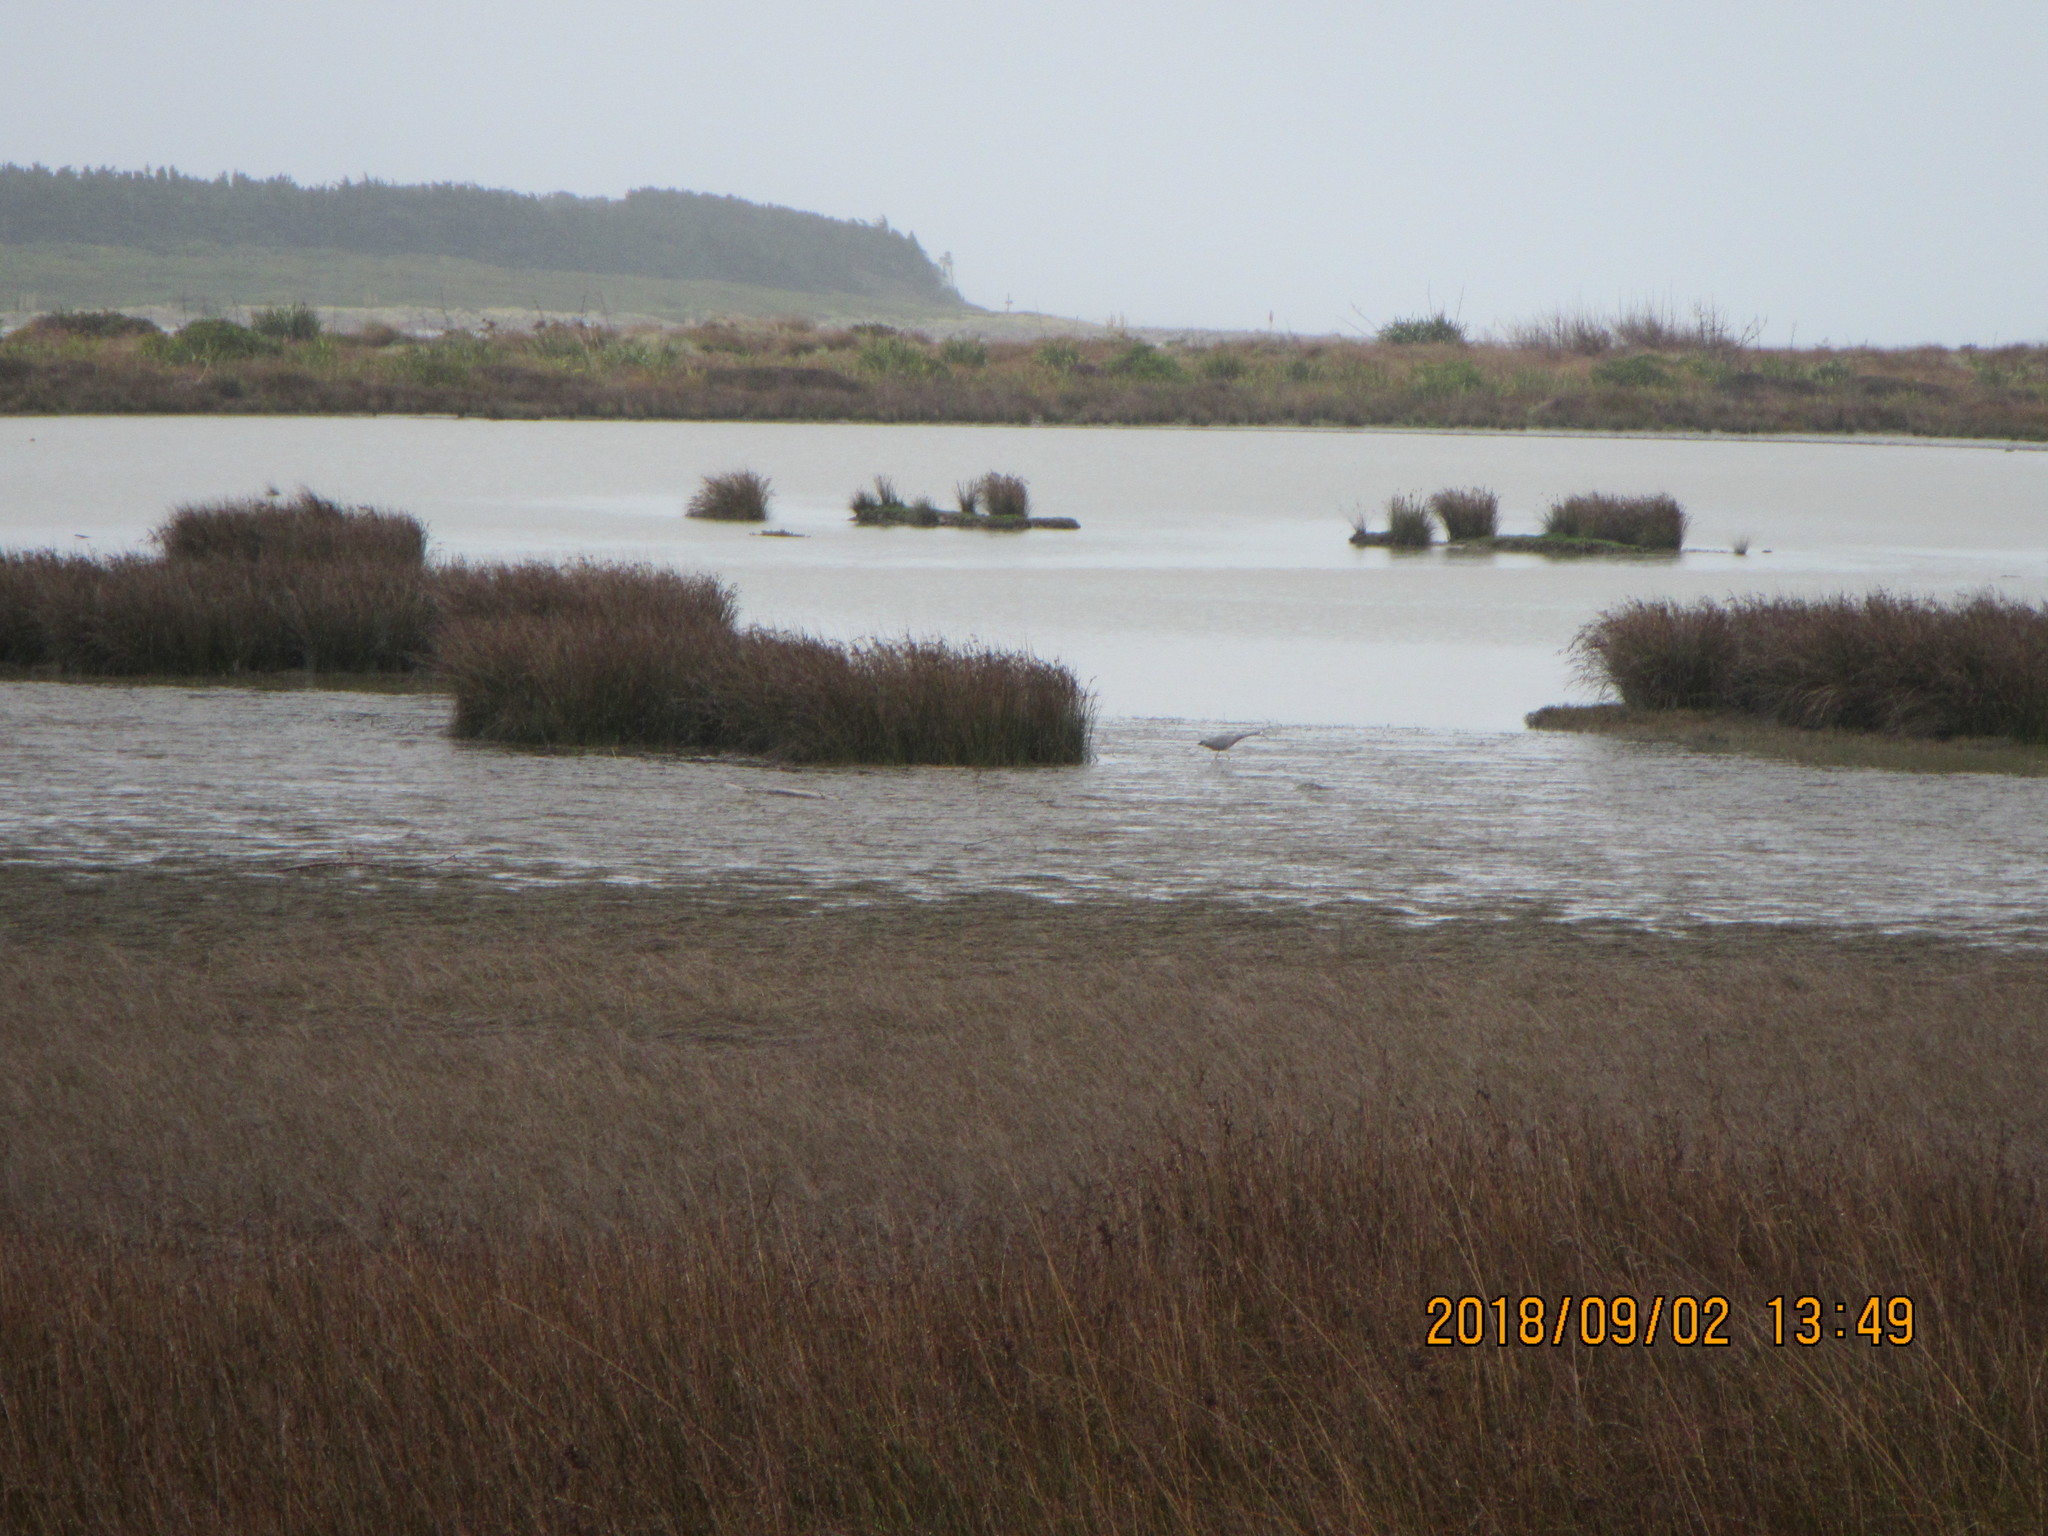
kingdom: Animalia
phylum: Chordata
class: Aves
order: Pelecaniformes
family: Ardeidae
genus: Egretta
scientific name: Egretta novaehollandiae
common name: White-faced heron
